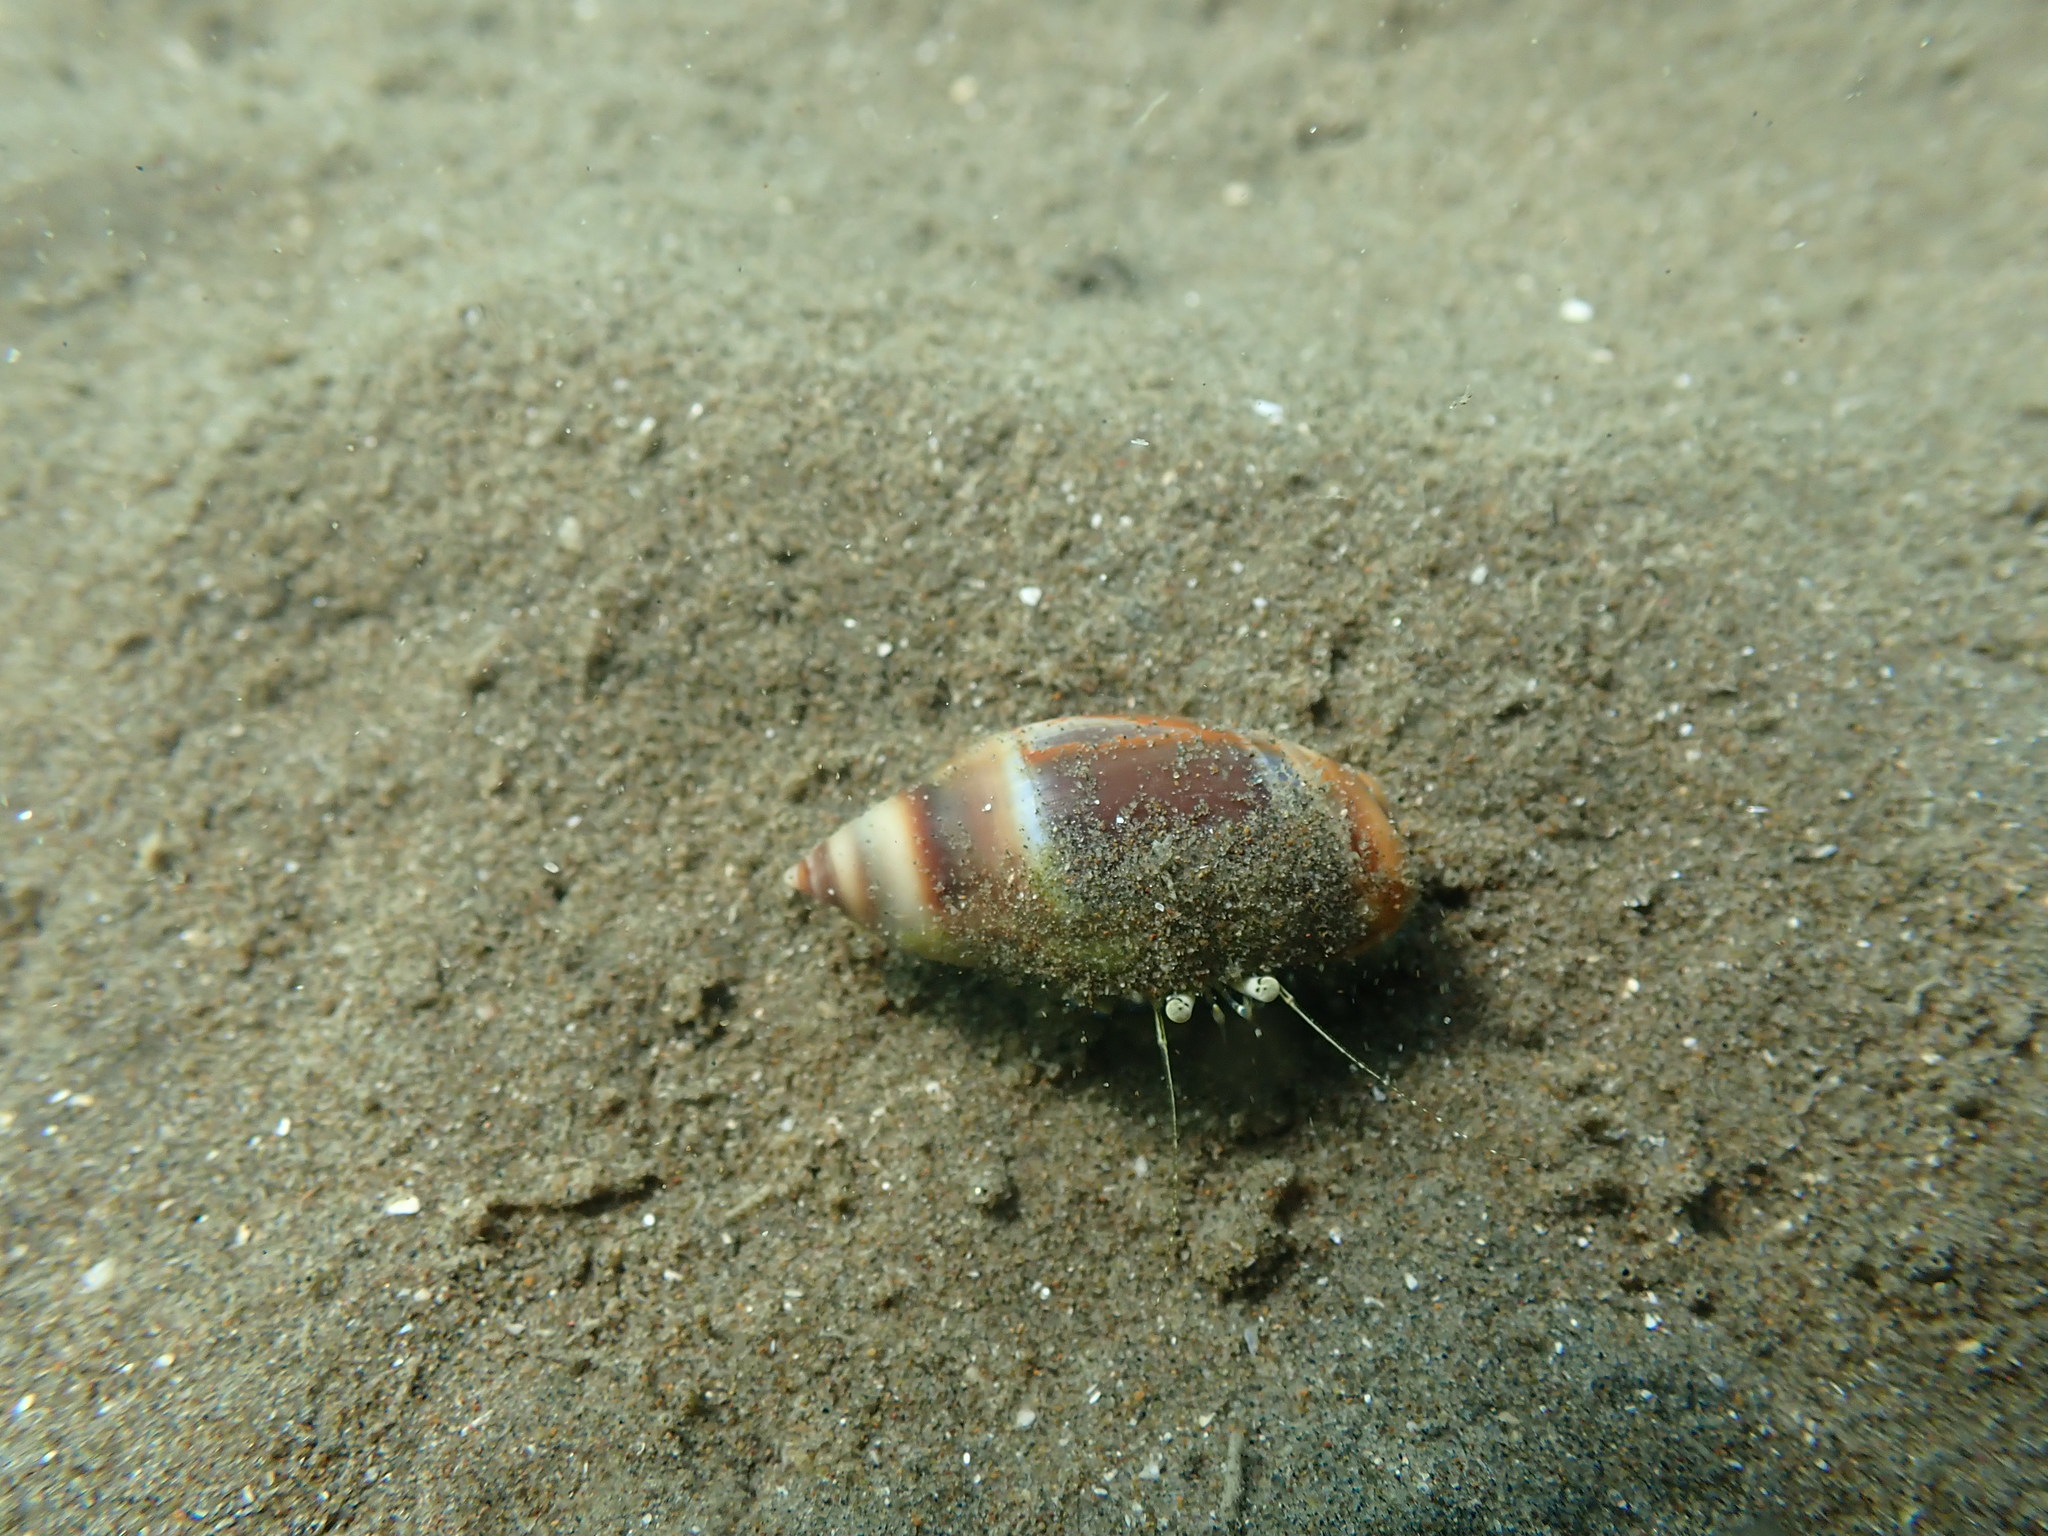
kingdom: Animalia
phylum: Arthropoda
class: Malacostraca
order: Decapoda
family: Paguridae
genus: Pagurus
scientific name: Pagurus novizealandiae
